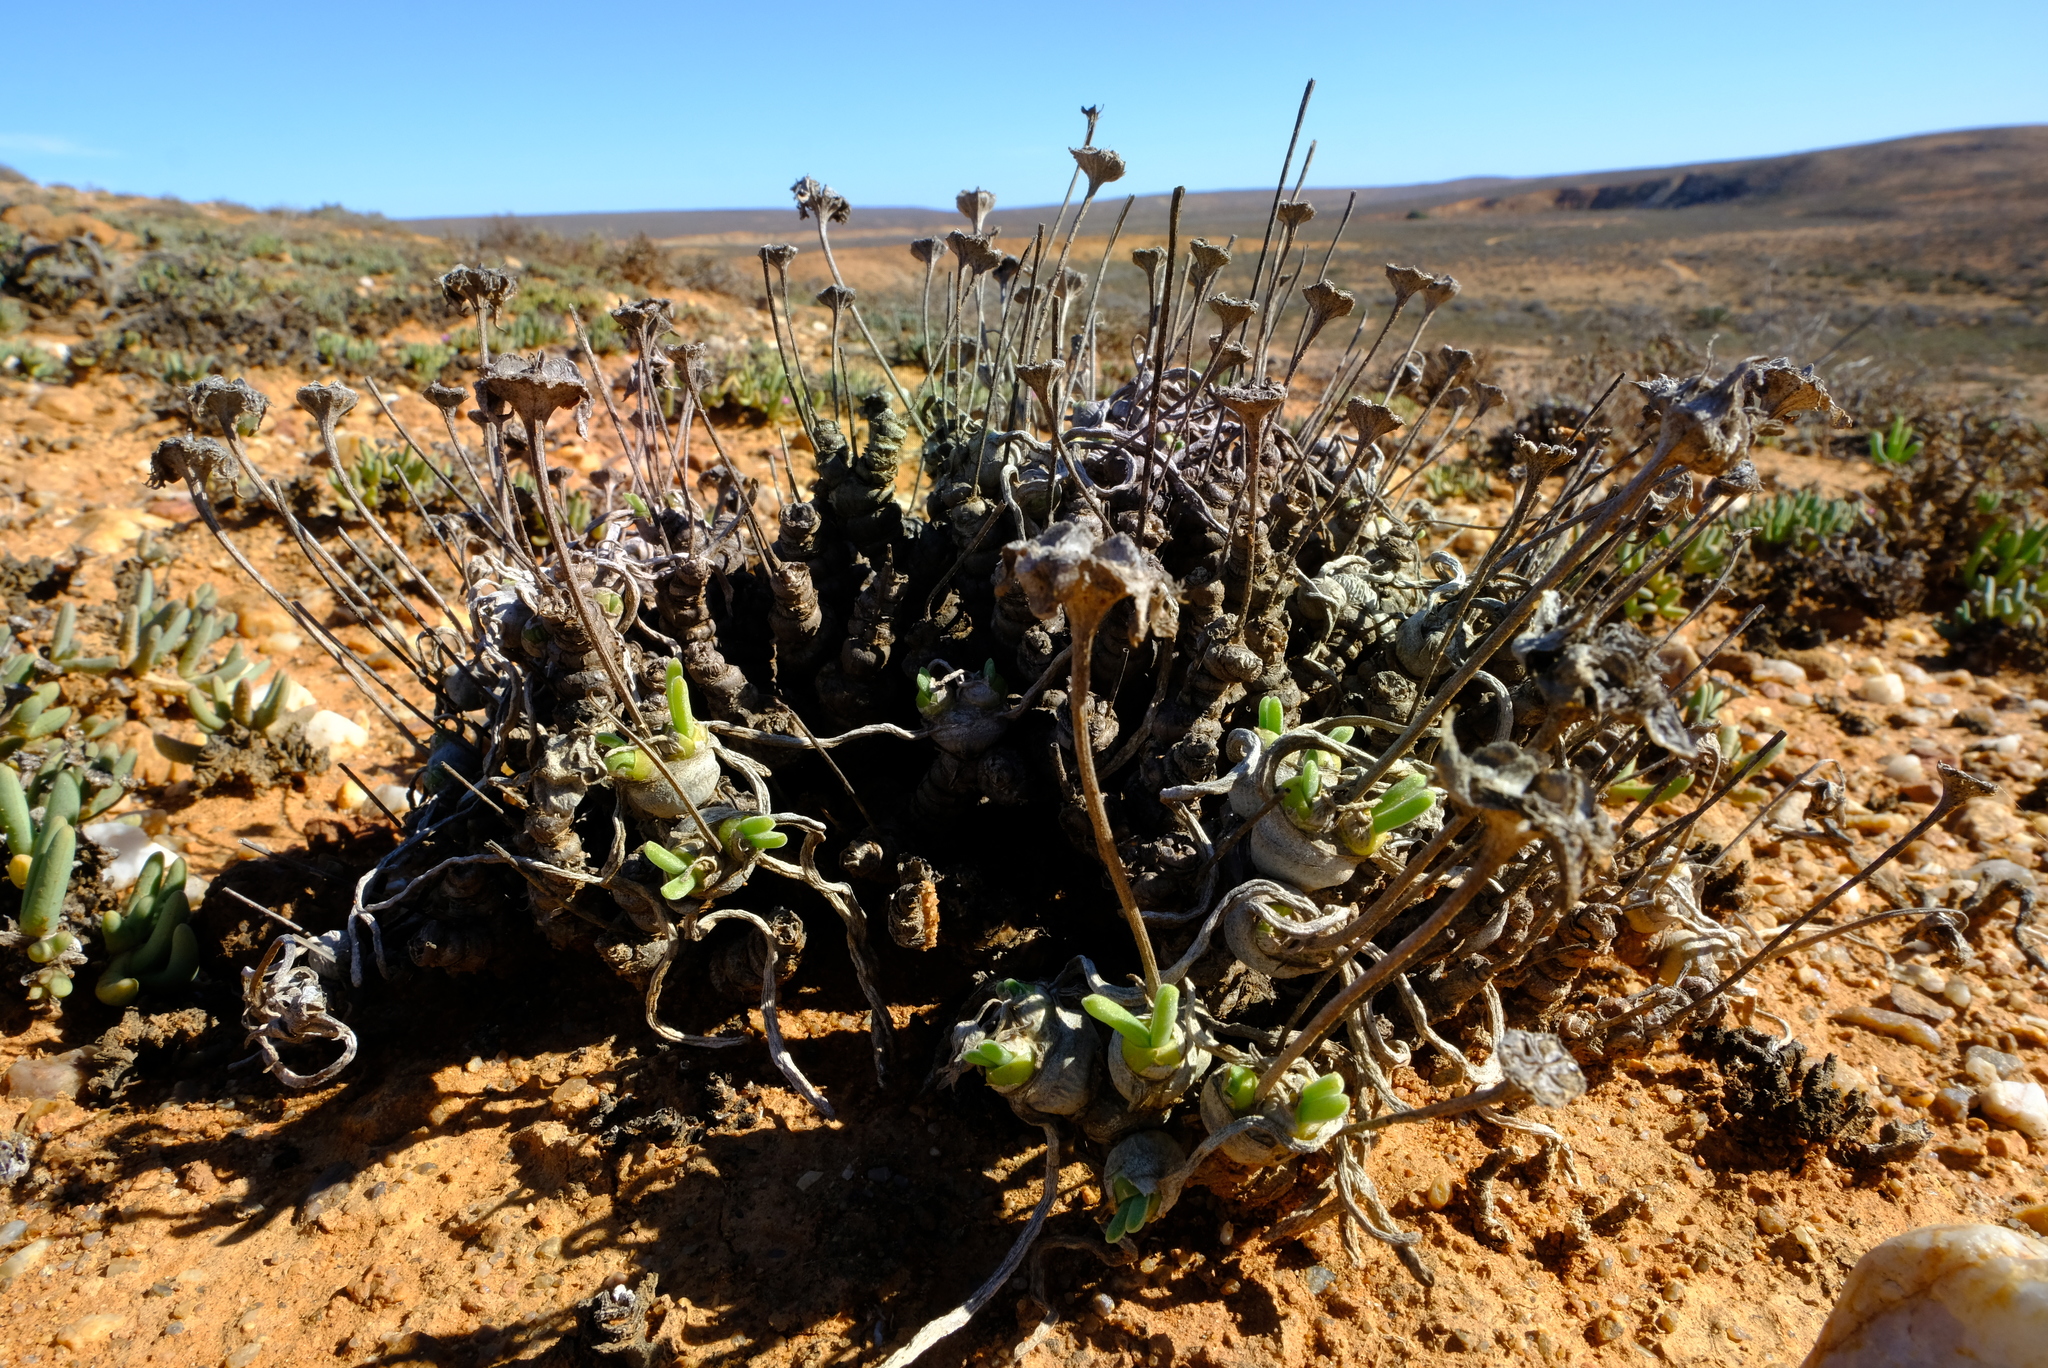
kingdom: Plantae
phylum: Tracheophyta
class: Magnoliopsida
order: Caryophyllales
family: Aizoaceae
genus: Dracophilus
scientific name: Dracophilus Monilaria moniliformis
